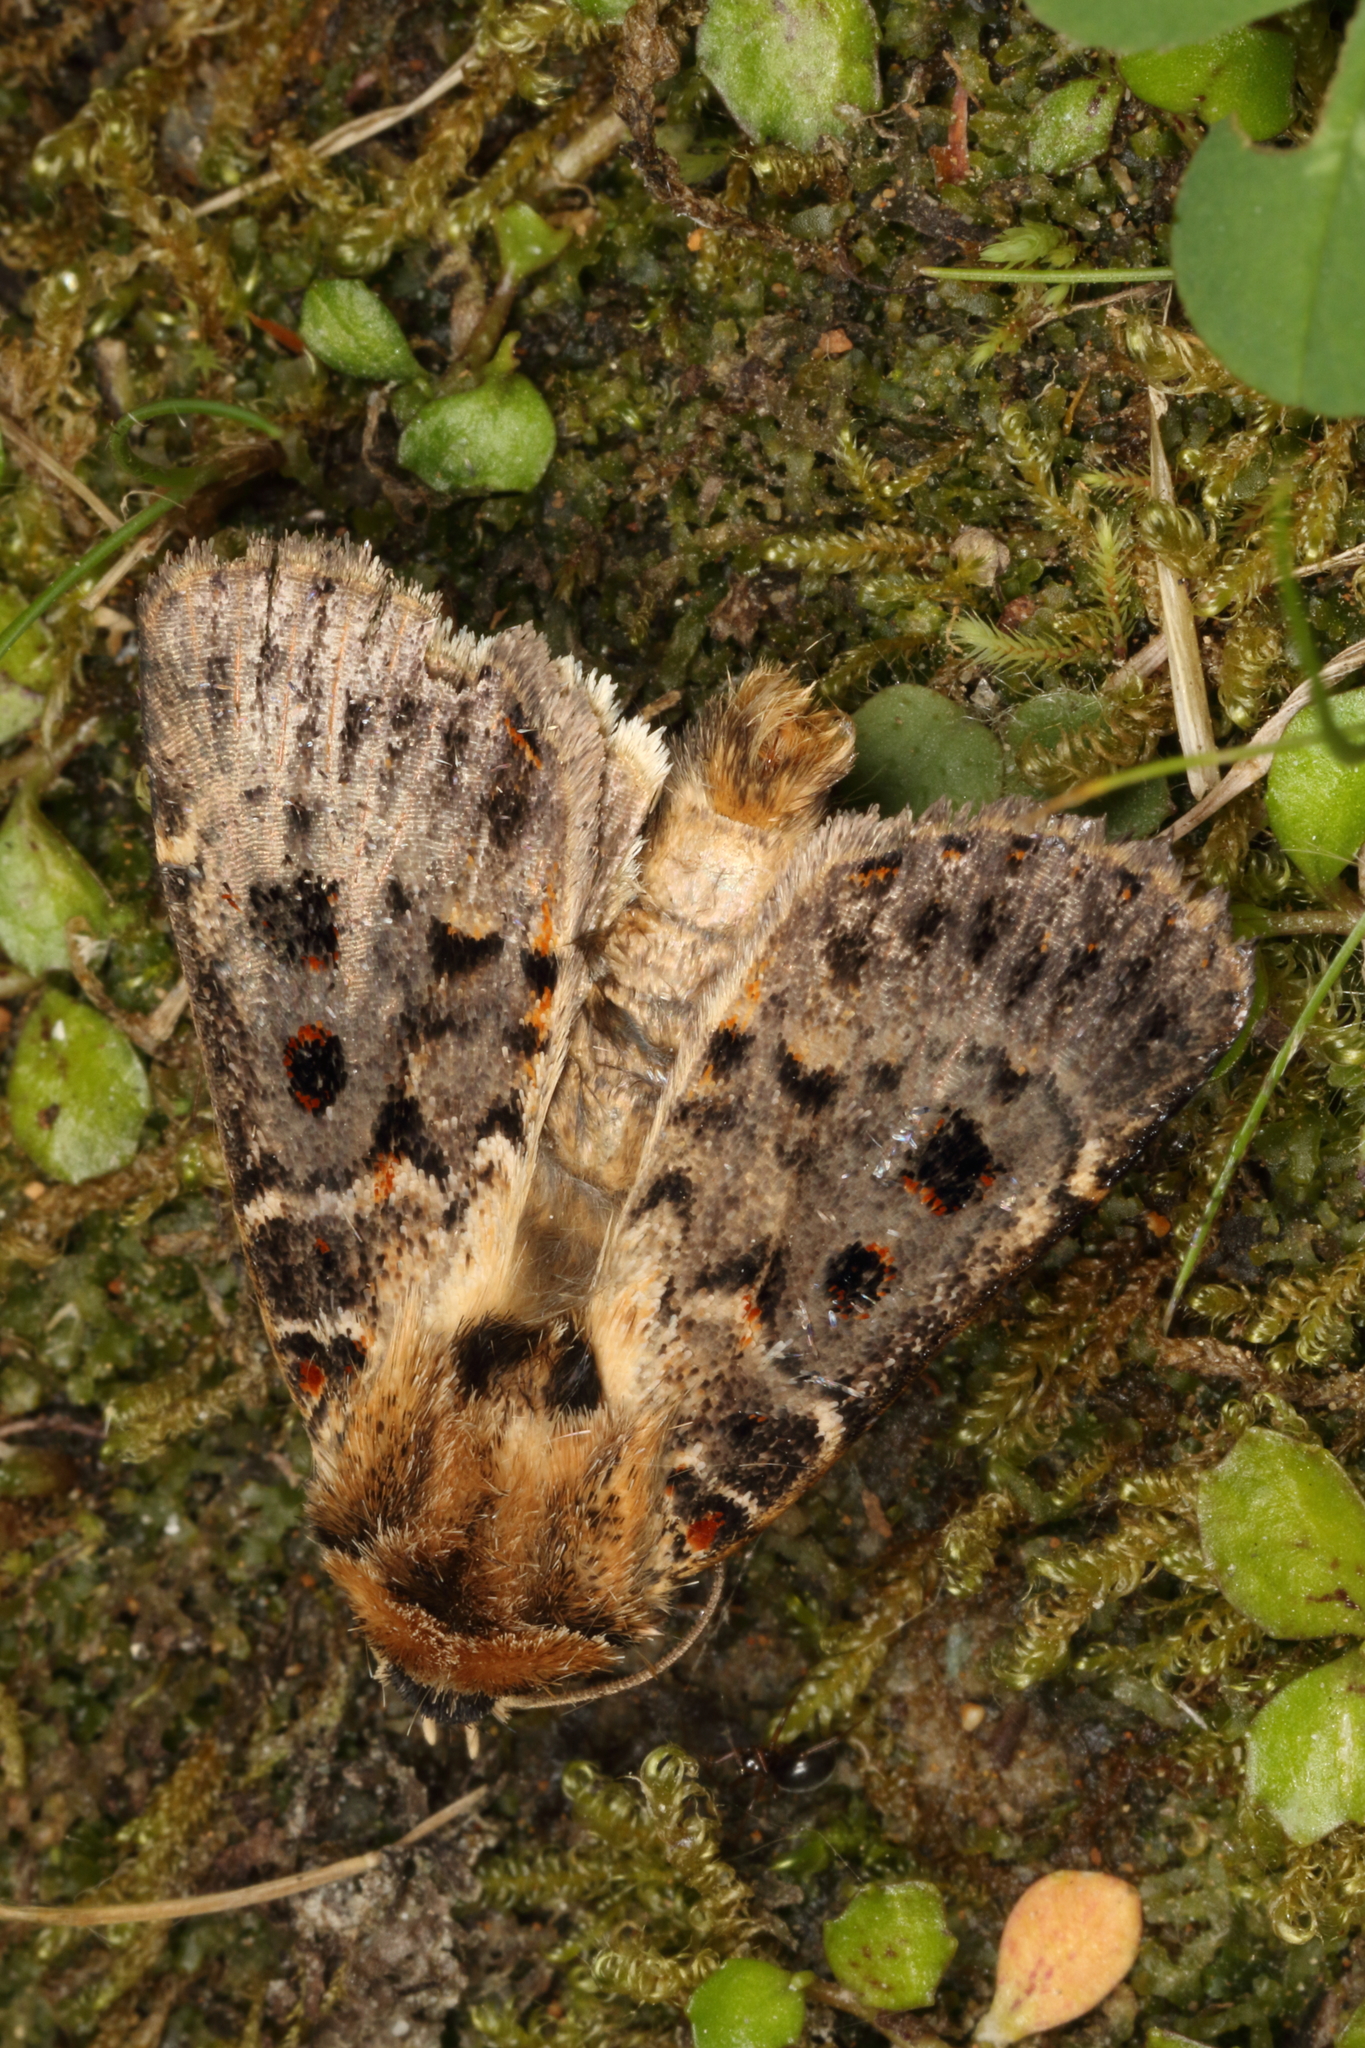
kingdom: Animalia
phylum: Arthropoda
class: Insecta
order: Lepidoptera
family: Noctuidae
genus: Proteuxoa
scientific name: Proteuxoa sanguinipuncta
